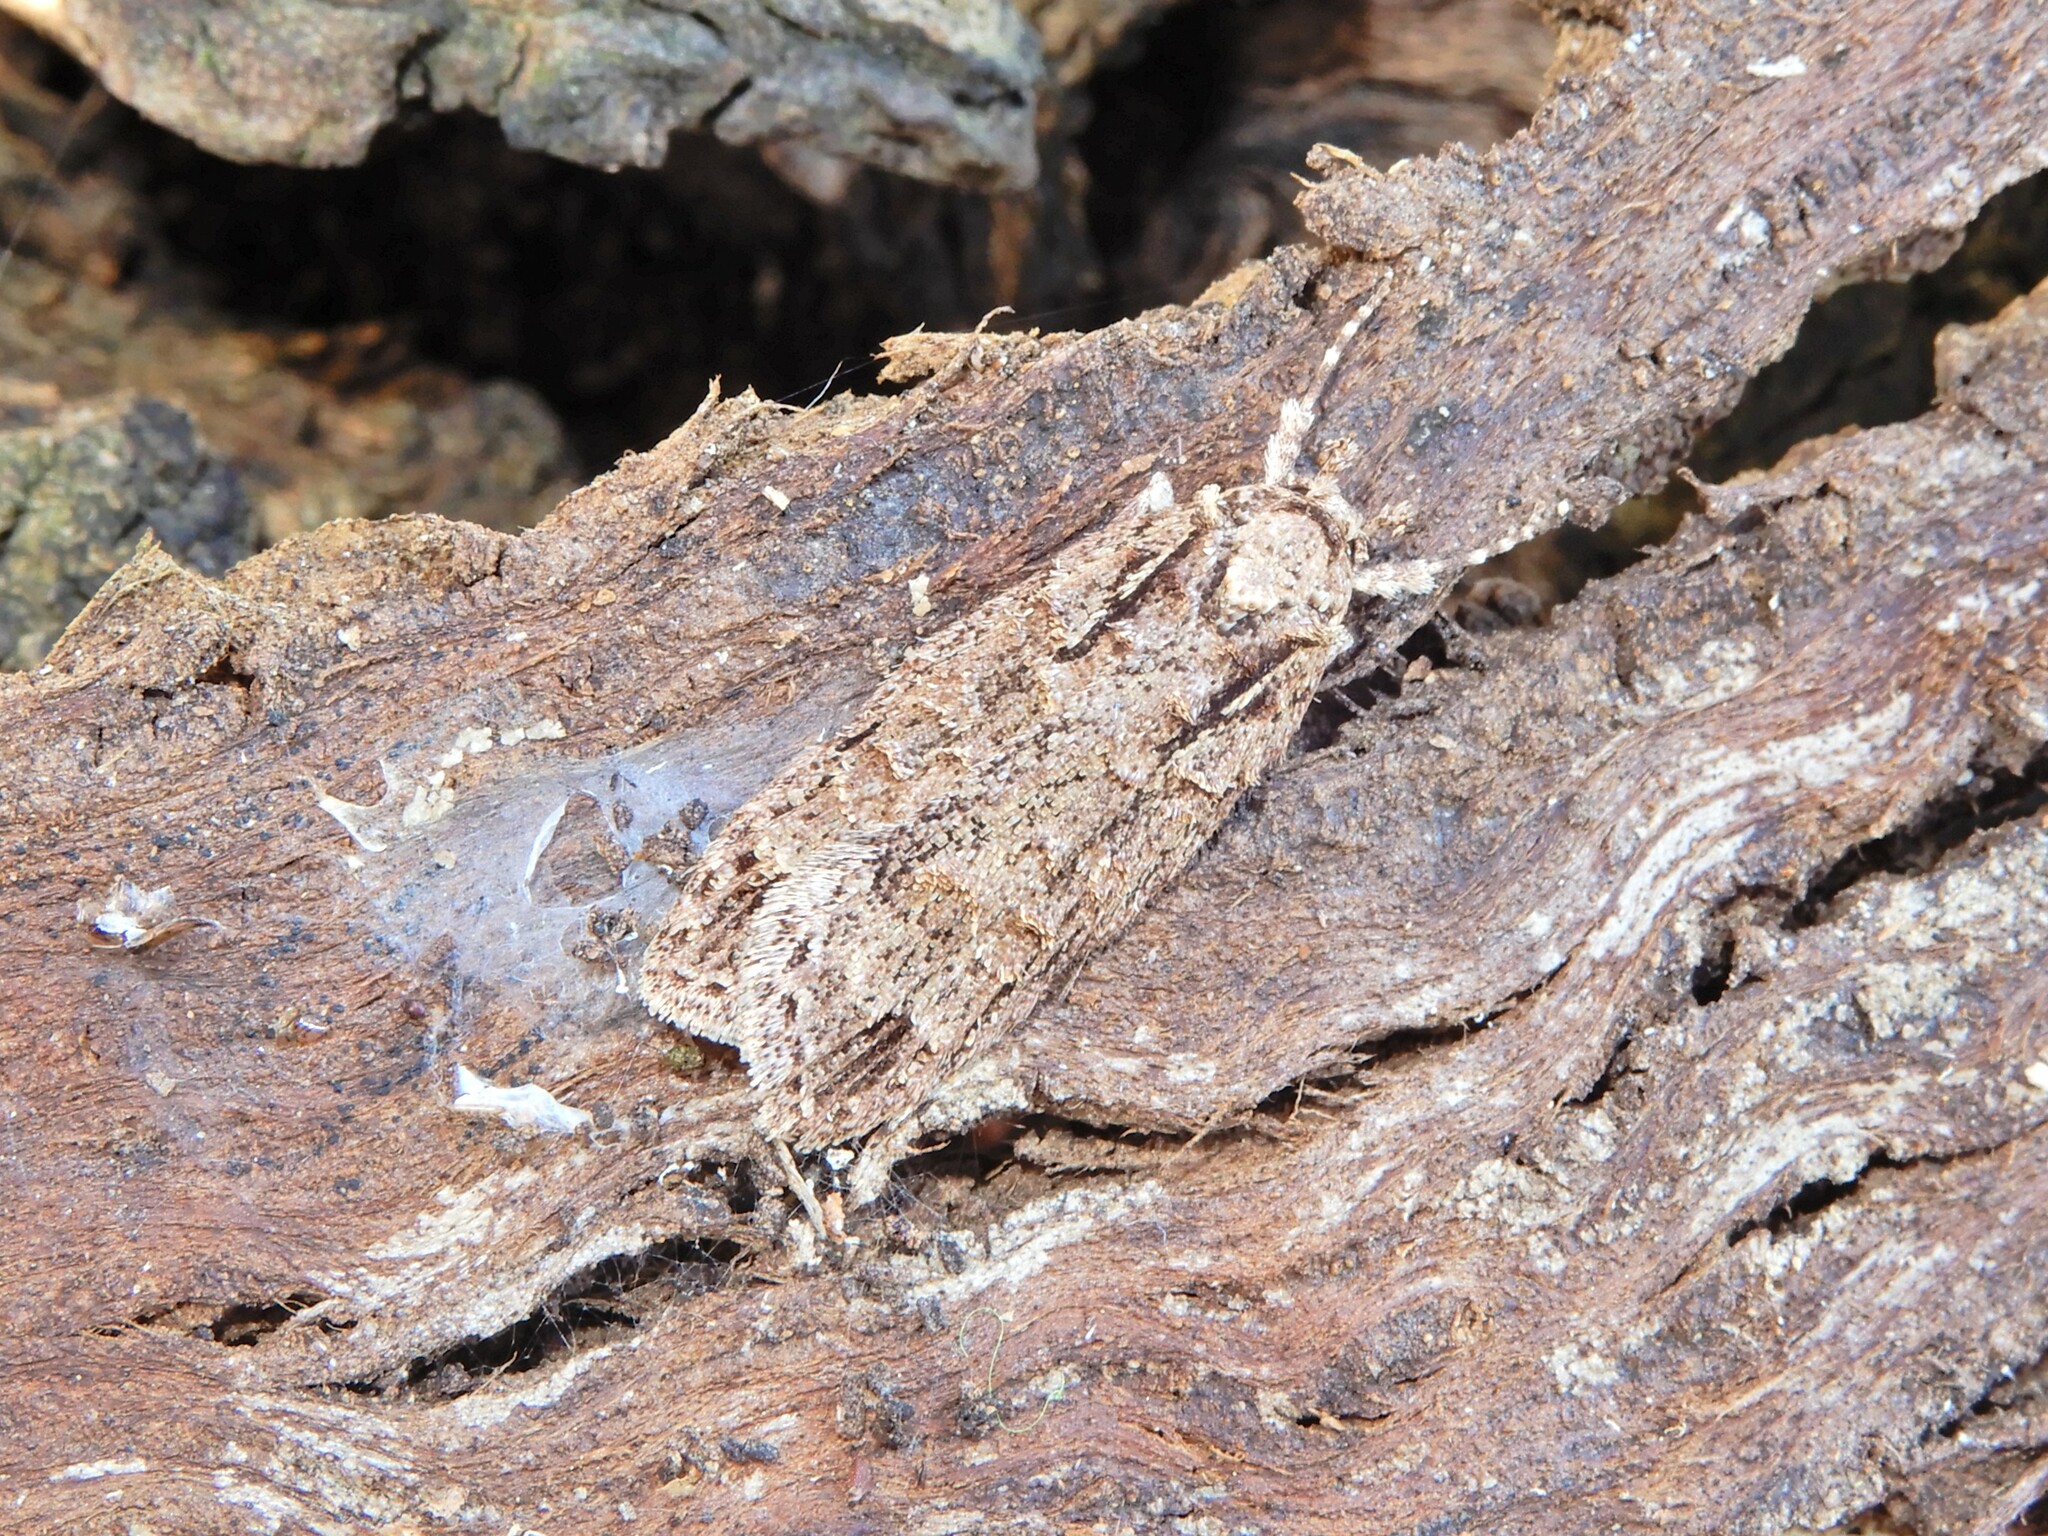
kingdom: Animalia
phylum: Arthropoda
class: Insecta
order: Lepidoptera
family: Oecophoridae
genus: Izatha
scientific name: Izatha attactella
